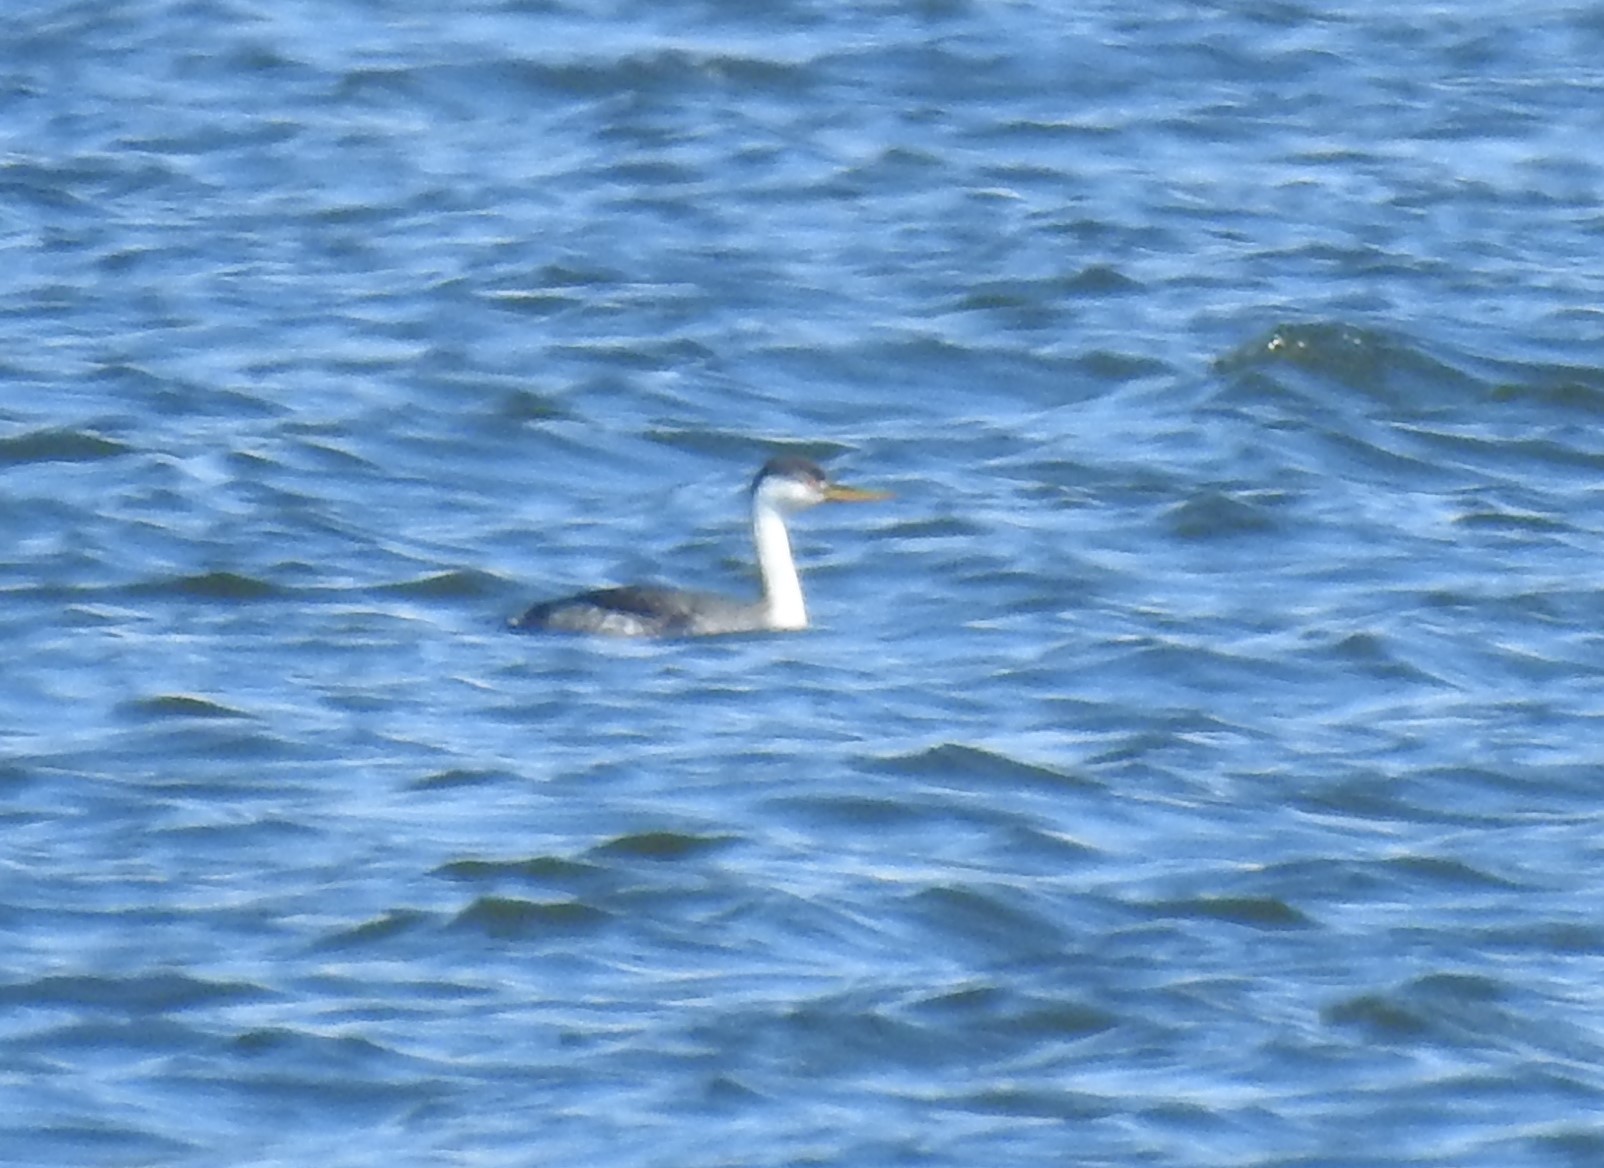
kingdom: Animalia
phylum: Chordata
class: Aves
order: Podicipediformes
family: Podicipedidae
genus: Aechmophorus
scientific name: Aechmophorus occidentalis
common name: Western grebe
